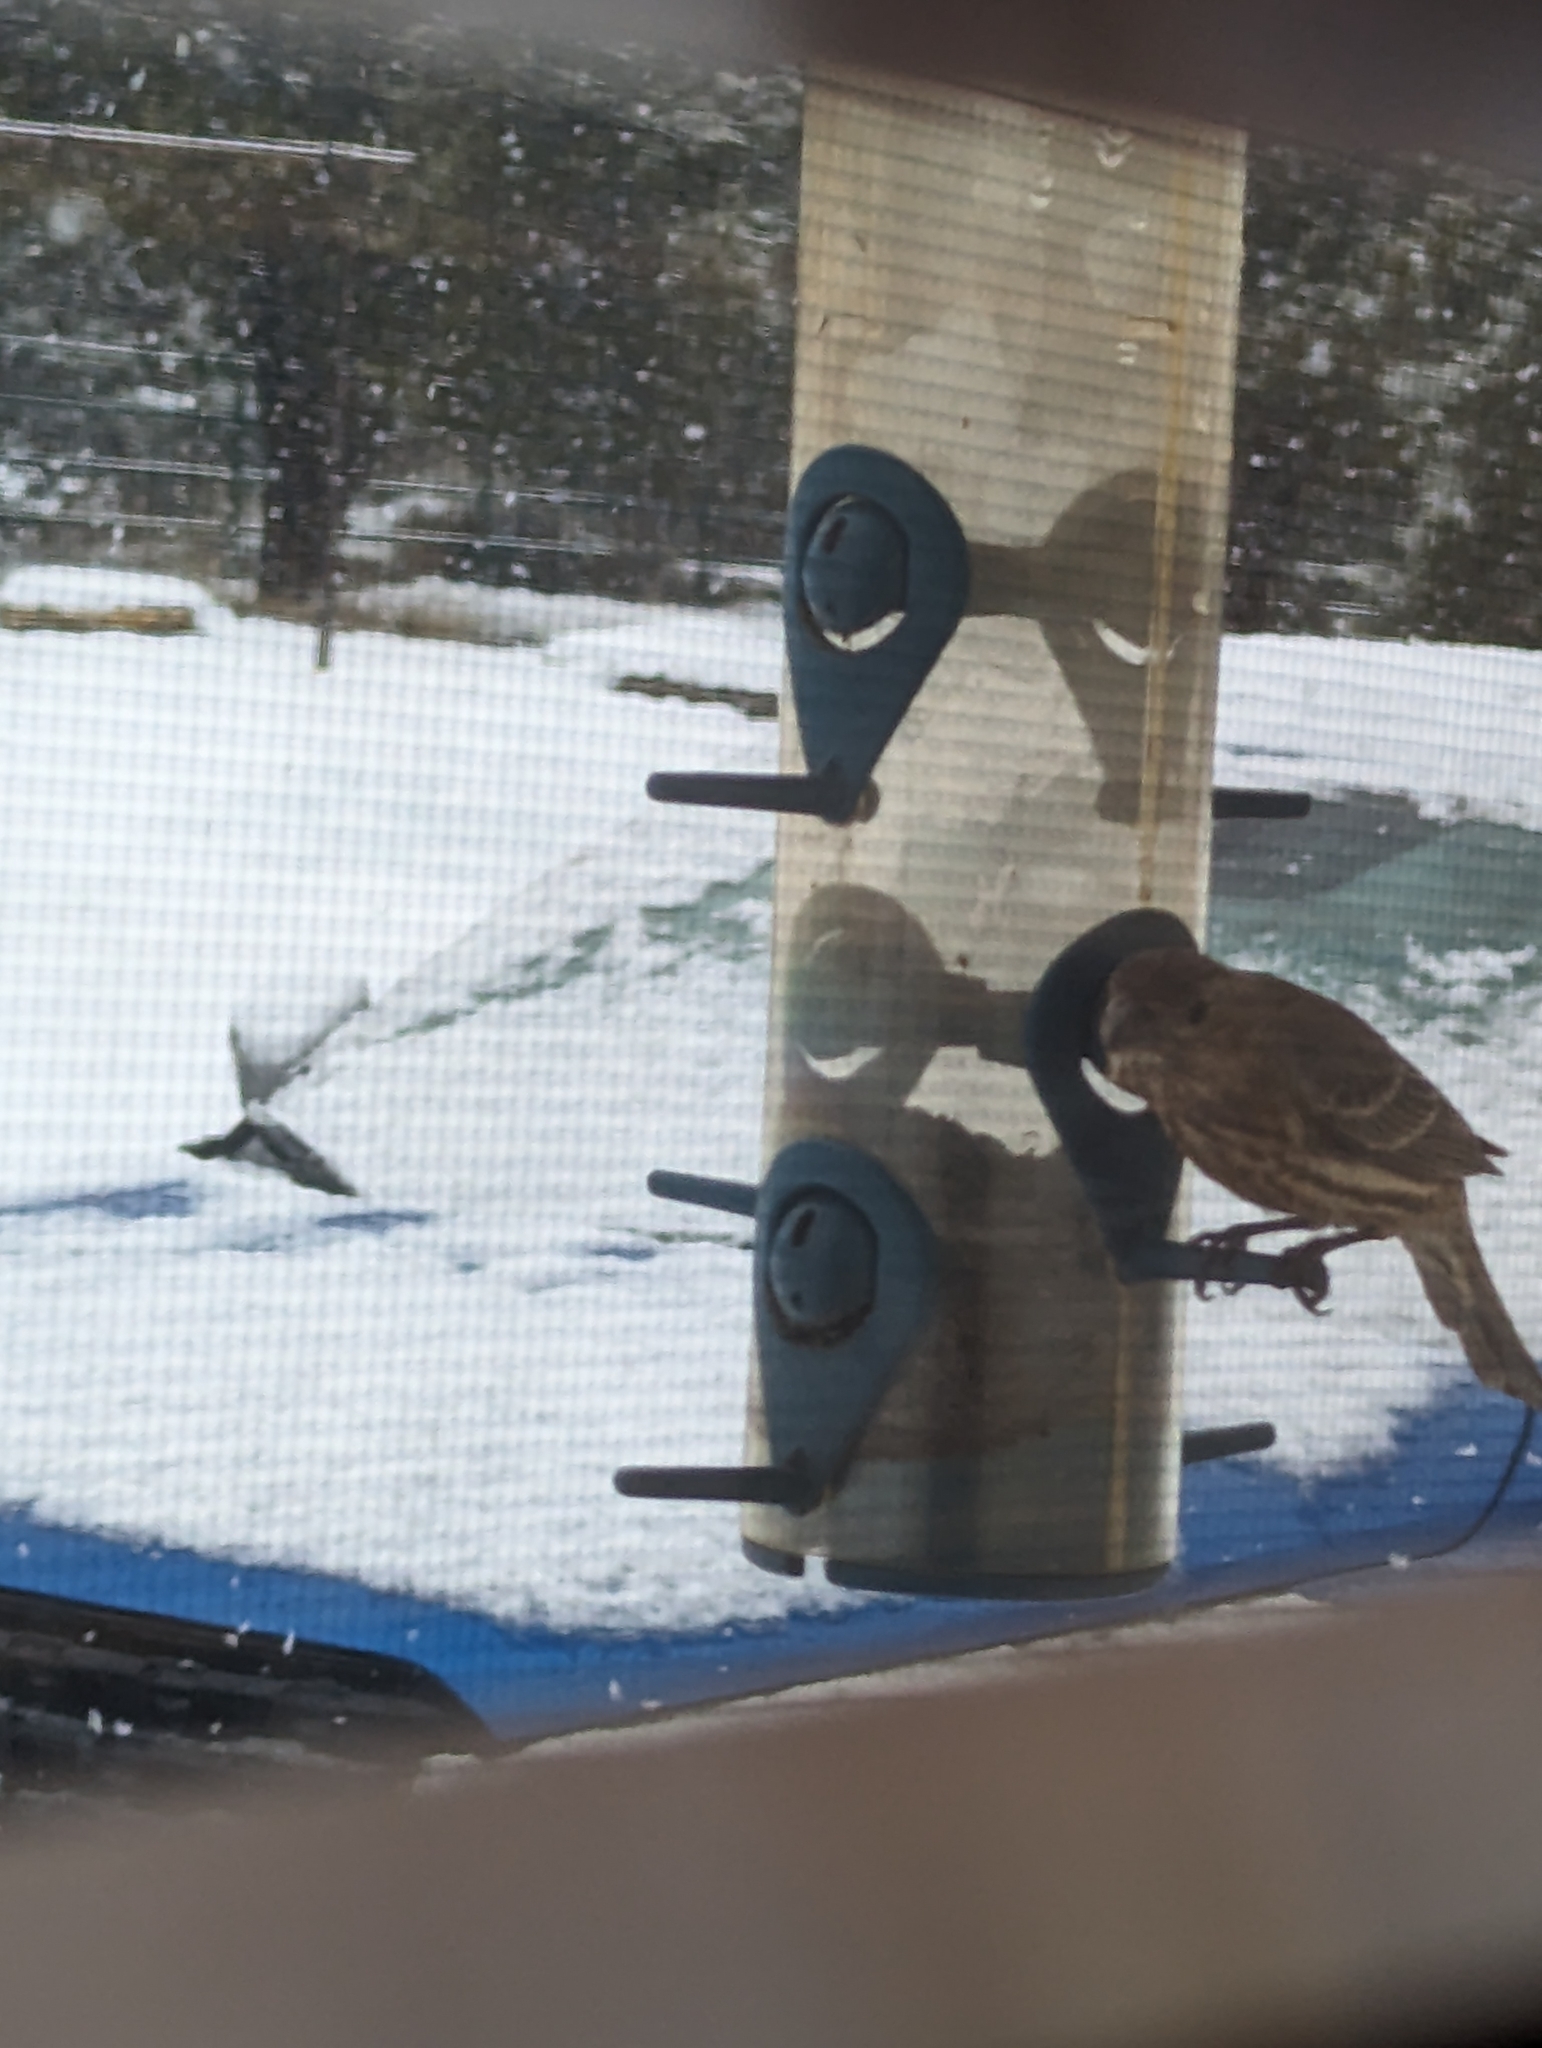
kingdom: Animalia
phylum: Chordata
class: Aves
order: Passeriformes
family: Fringillidae
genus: Haemorhous
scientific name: Haemorhous mexicanus
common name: House finch
